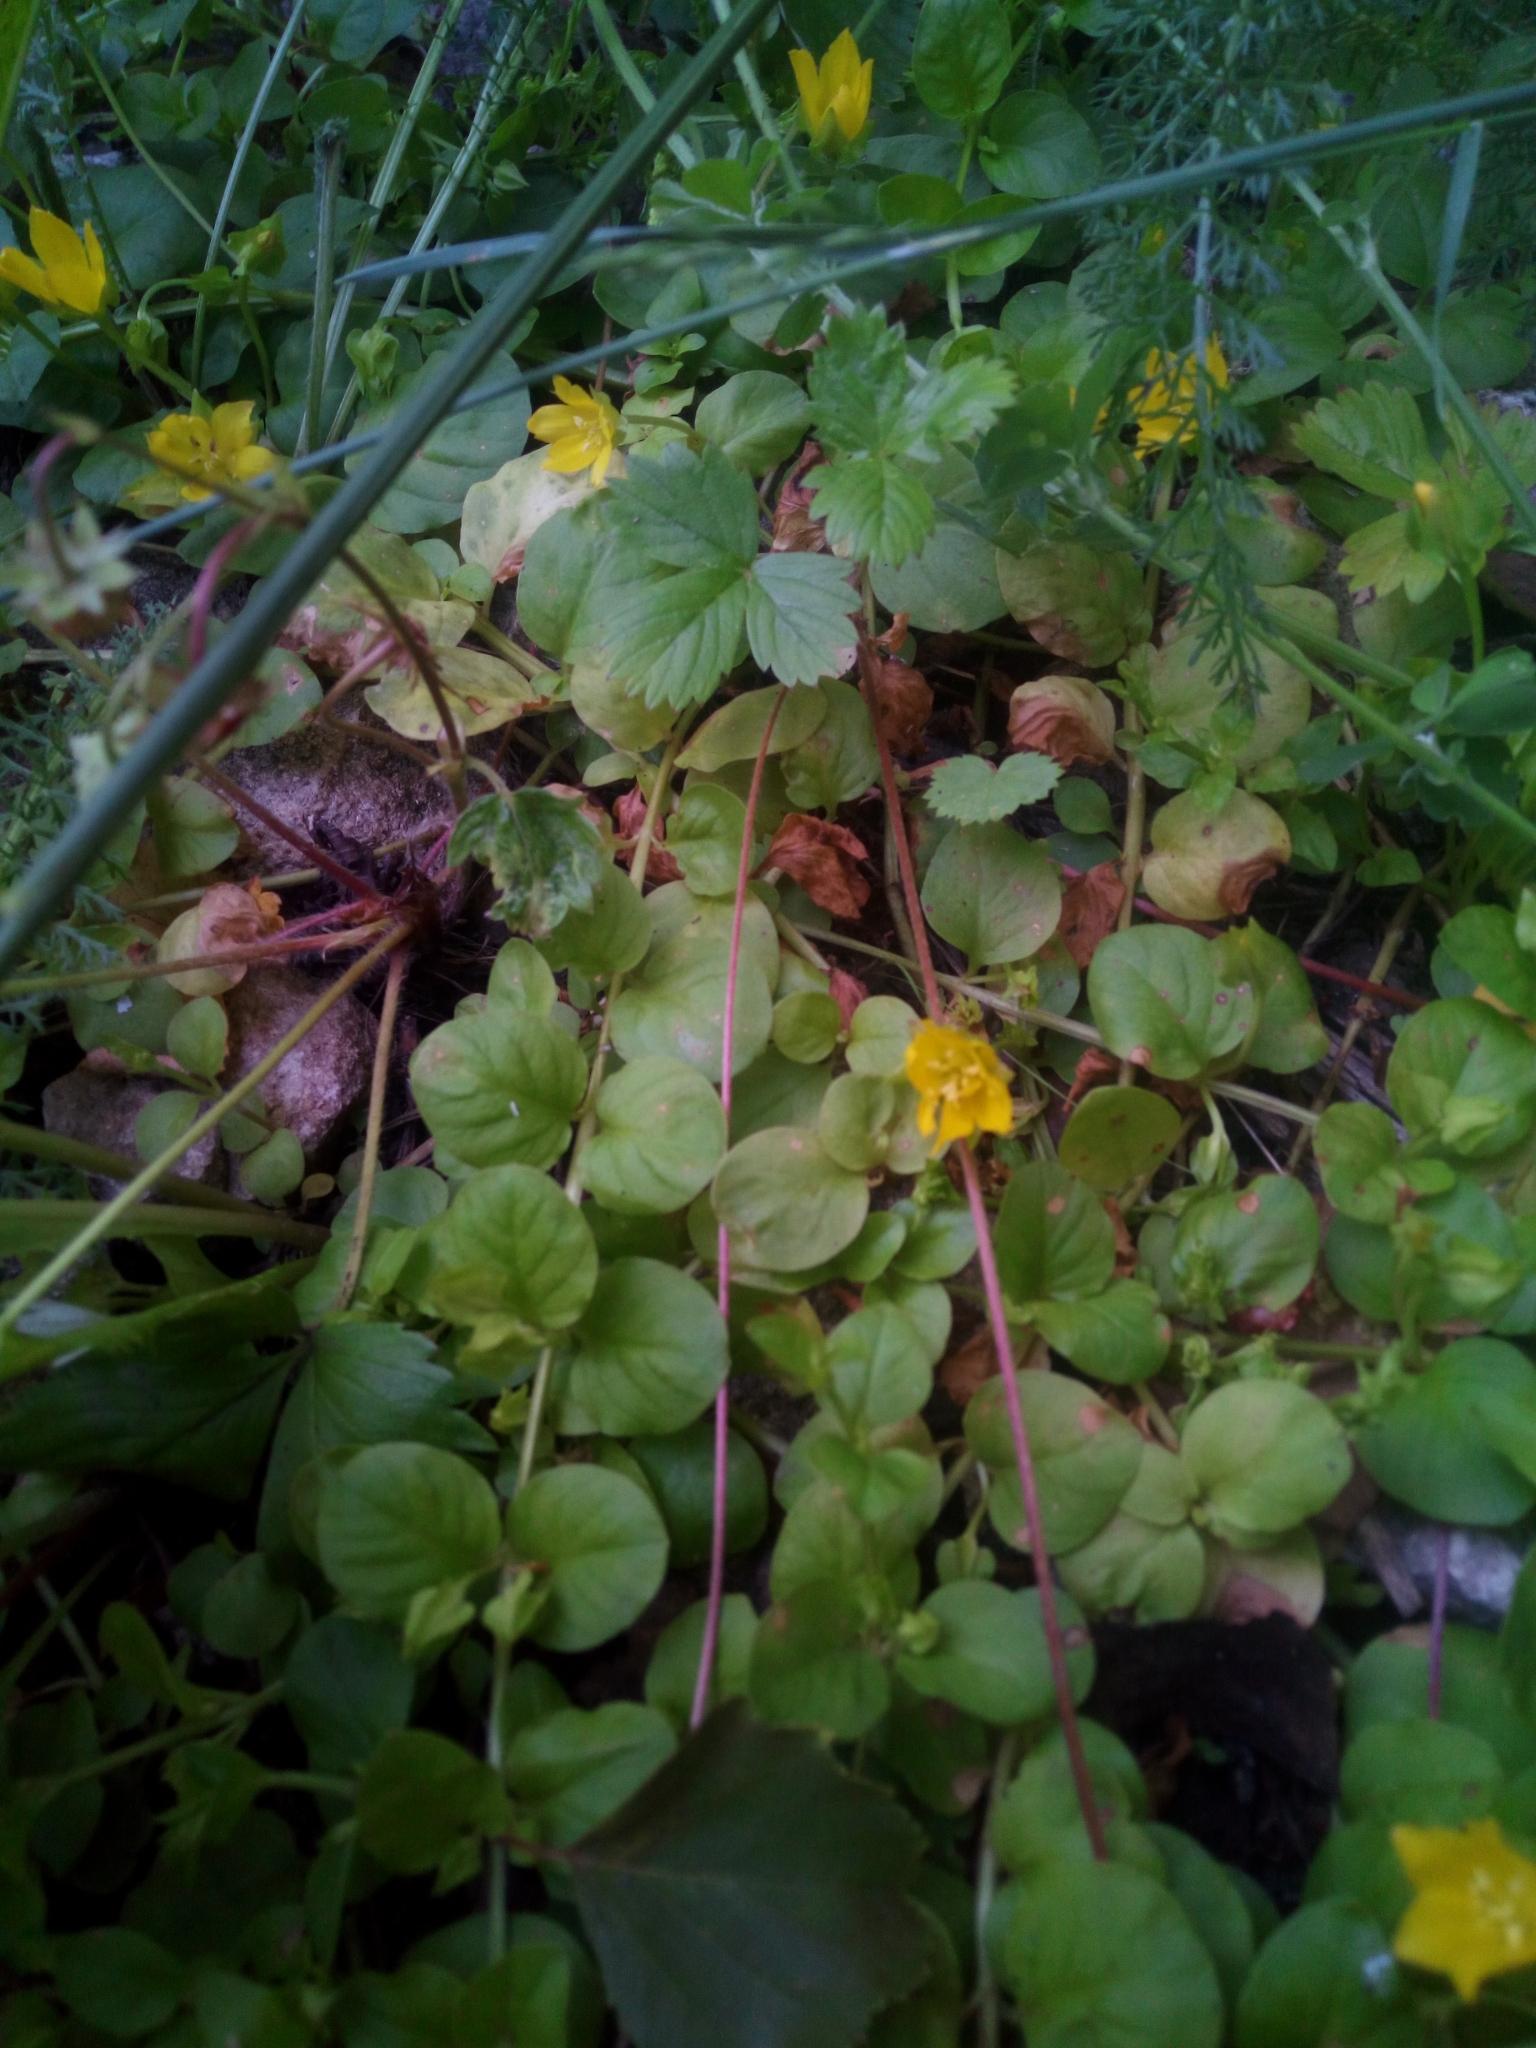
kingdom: Plantae
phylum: Tracheophyta
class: Magnoliopsida
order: Ericales
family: Primulaceae
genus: Lysimachia
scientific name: Lysimachia nummularia
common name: Moneywort
